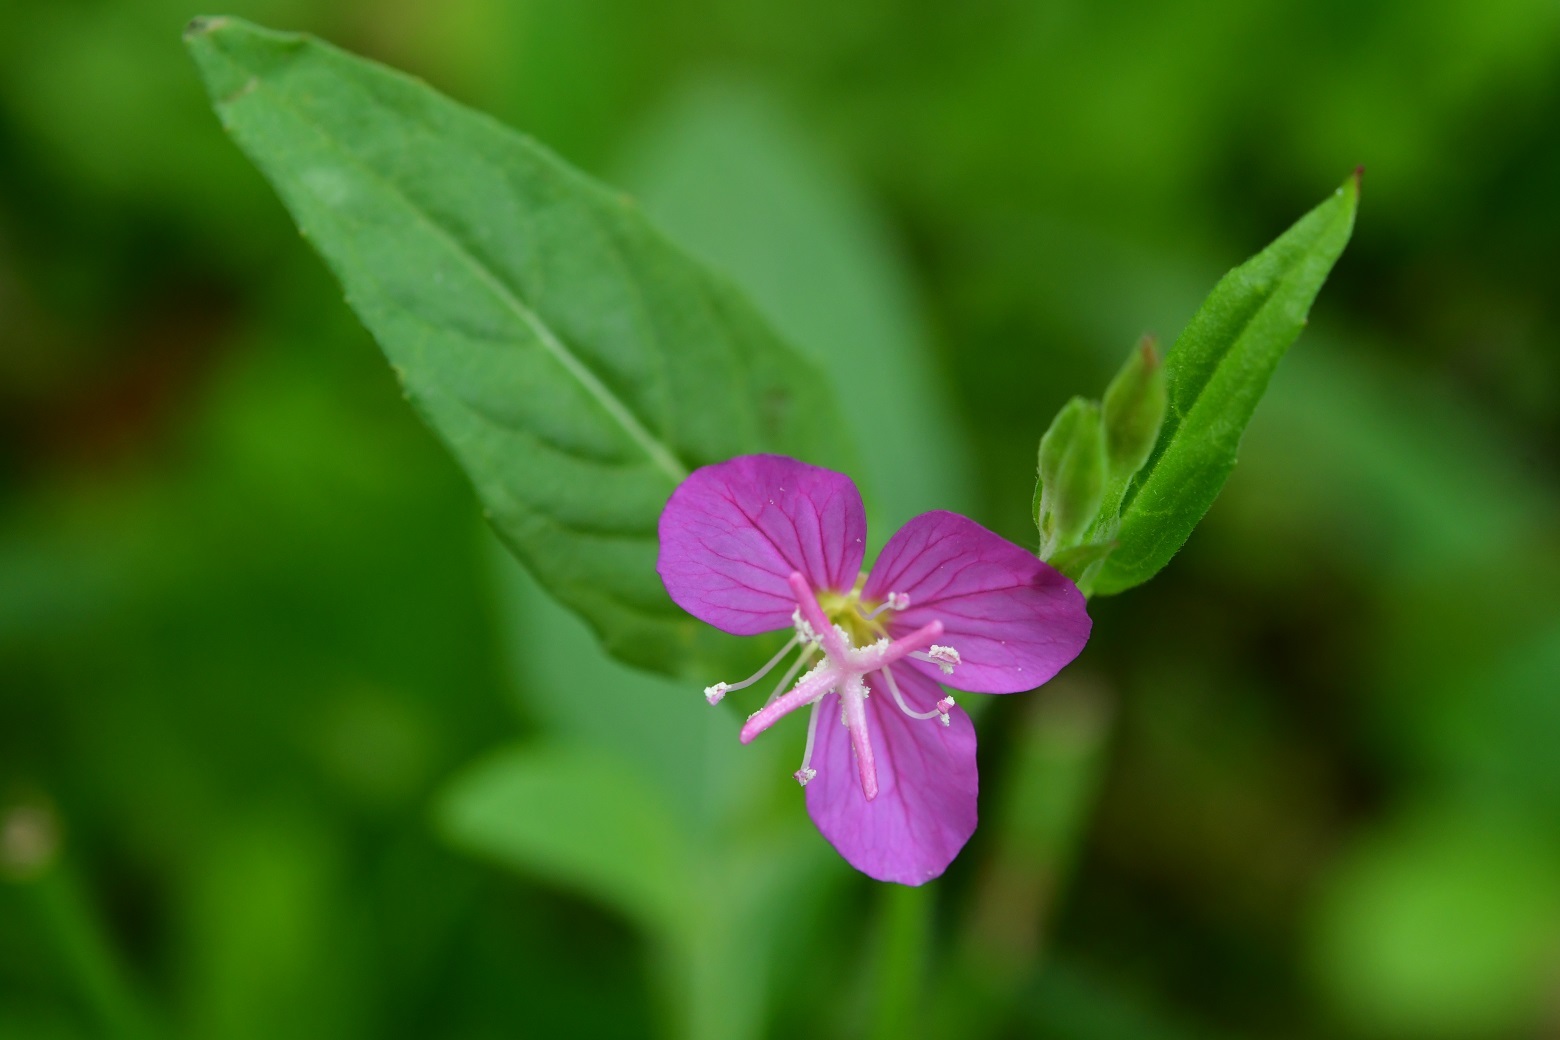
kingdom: Plantae
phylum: Tracheophyta
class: Magnoliopsida
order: Myrtales
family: Onagraceae
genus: Oenothera
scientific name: Oenothera rosea
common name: Rosy evening-primrose
